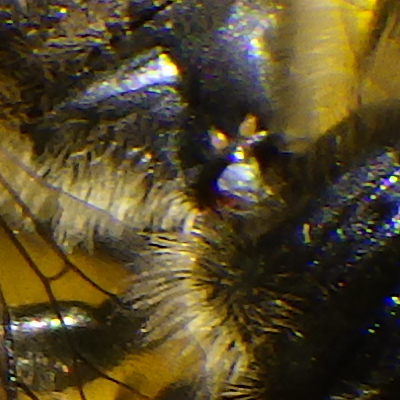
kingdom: Animalia
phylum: Arthropoda
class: Insecta
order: Hymenoptera
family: Megachilidae
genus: Megachile
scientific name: Megachile inermis
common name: Unarmed leafcutter bee
